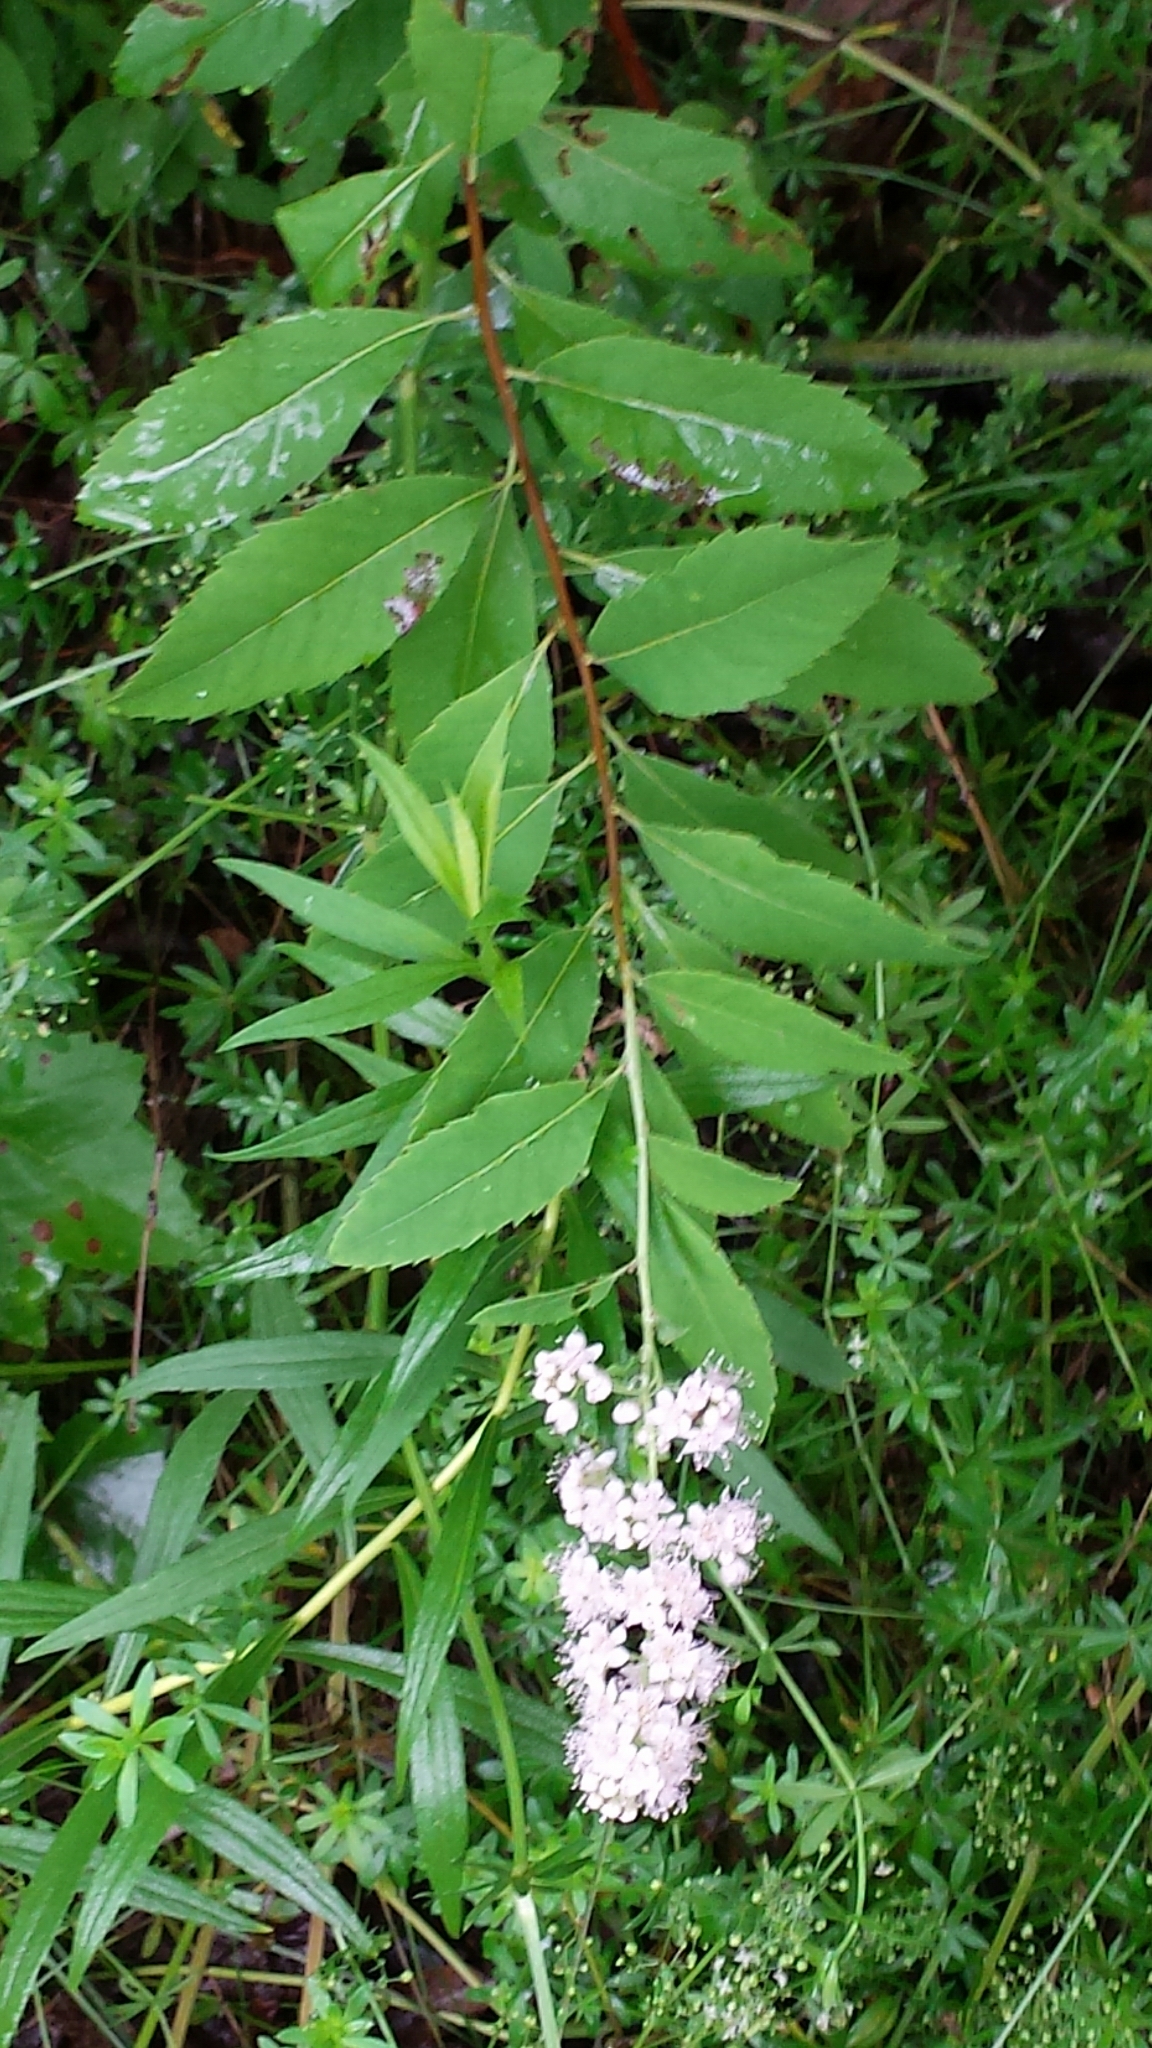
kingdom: Plantae
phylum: Tracheophyta
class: Magnoliopsida
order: Rosales
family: Rosaceae
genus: Spiraea
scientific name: Spiraea alba
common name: Pale bridewort
